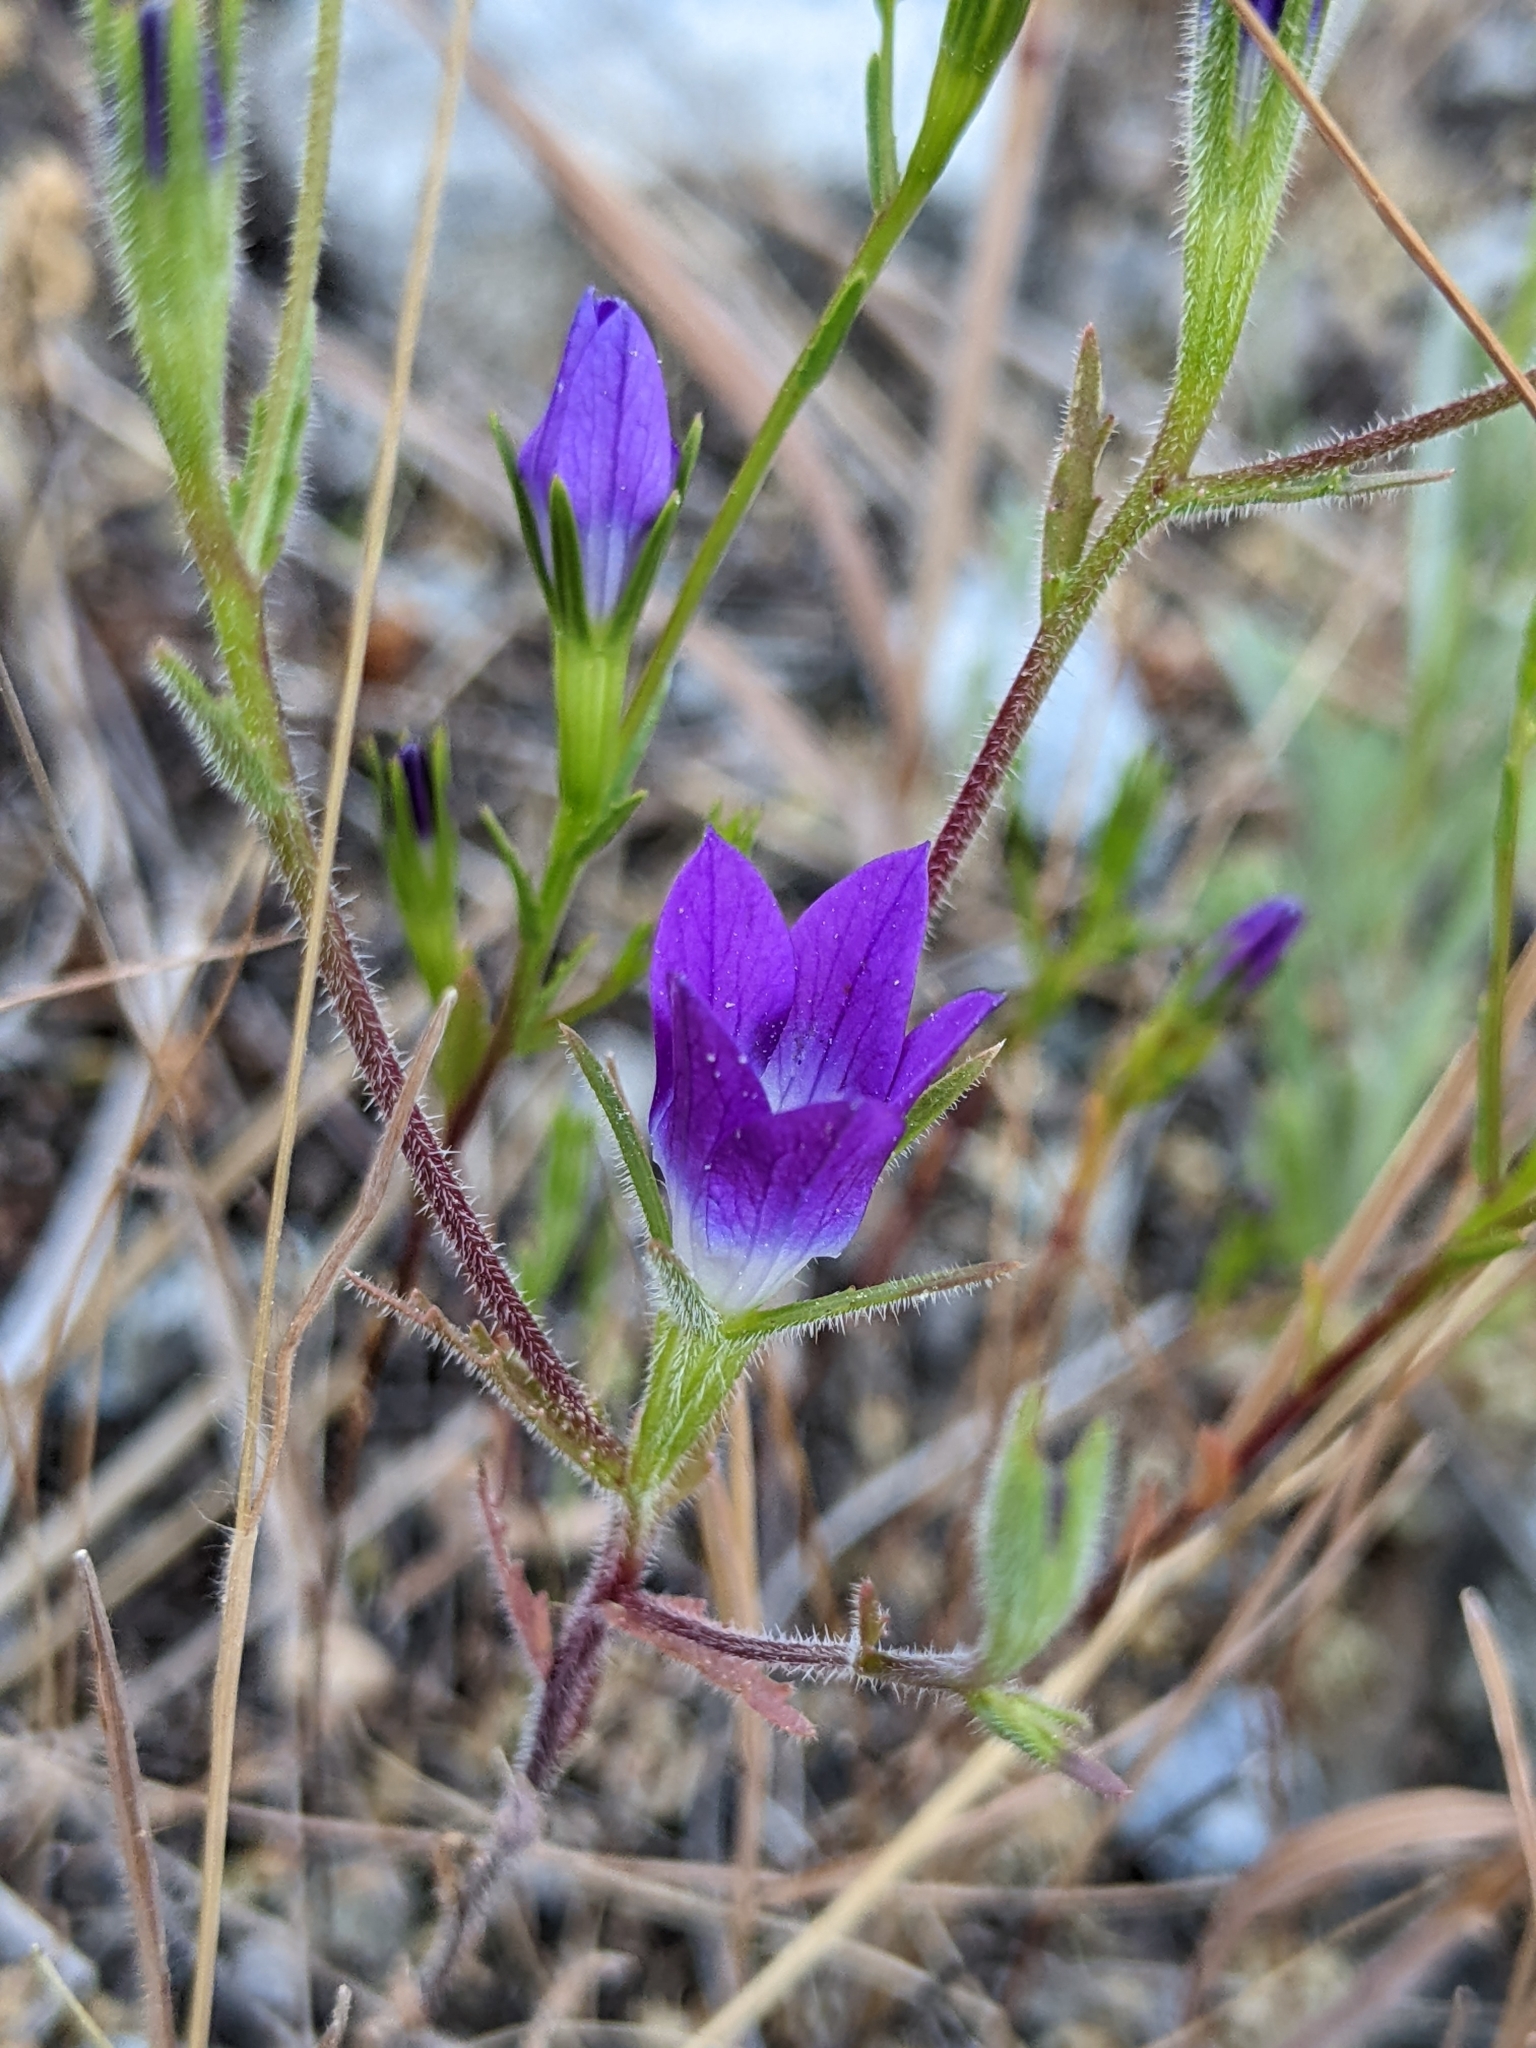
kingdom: Plantae
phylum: Tracheophyta
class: Magnoliopsida
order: Asterales
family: Campanulaceae
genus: Githopsis
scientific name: Githopsis pulchella
